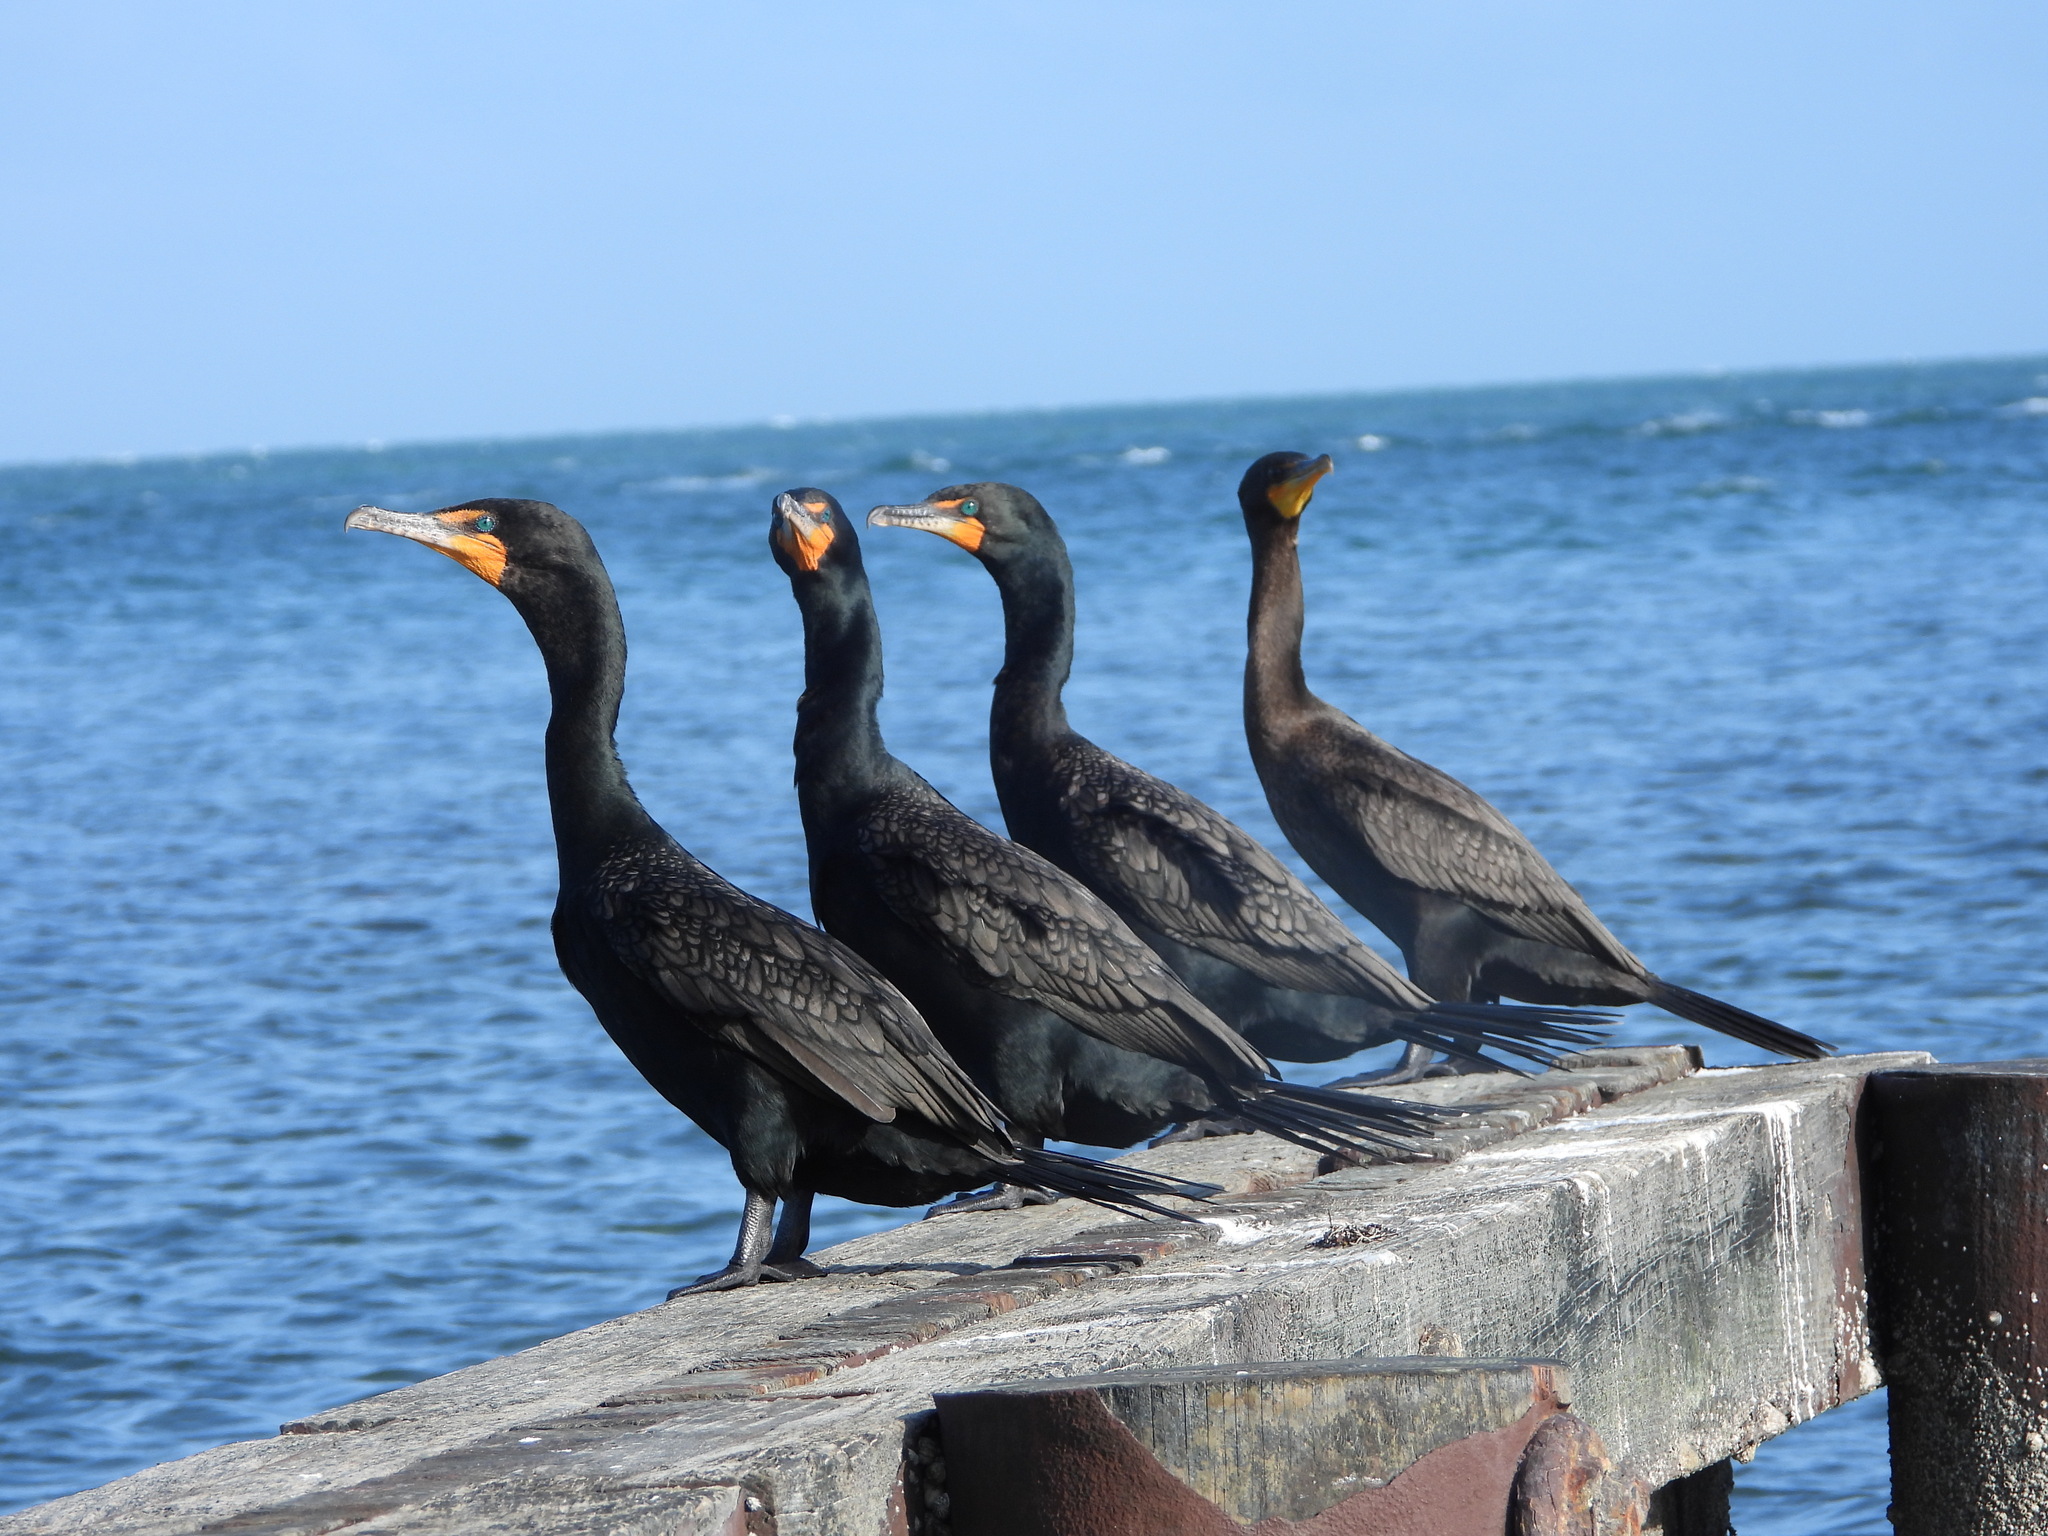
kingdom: Animalia
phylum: Chordata
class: Aves
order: Suliformes
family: Phalacrocoracidae
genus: Phalacrocorax
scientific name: Phalacrocorax auritus
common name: Double-crested cormorant
